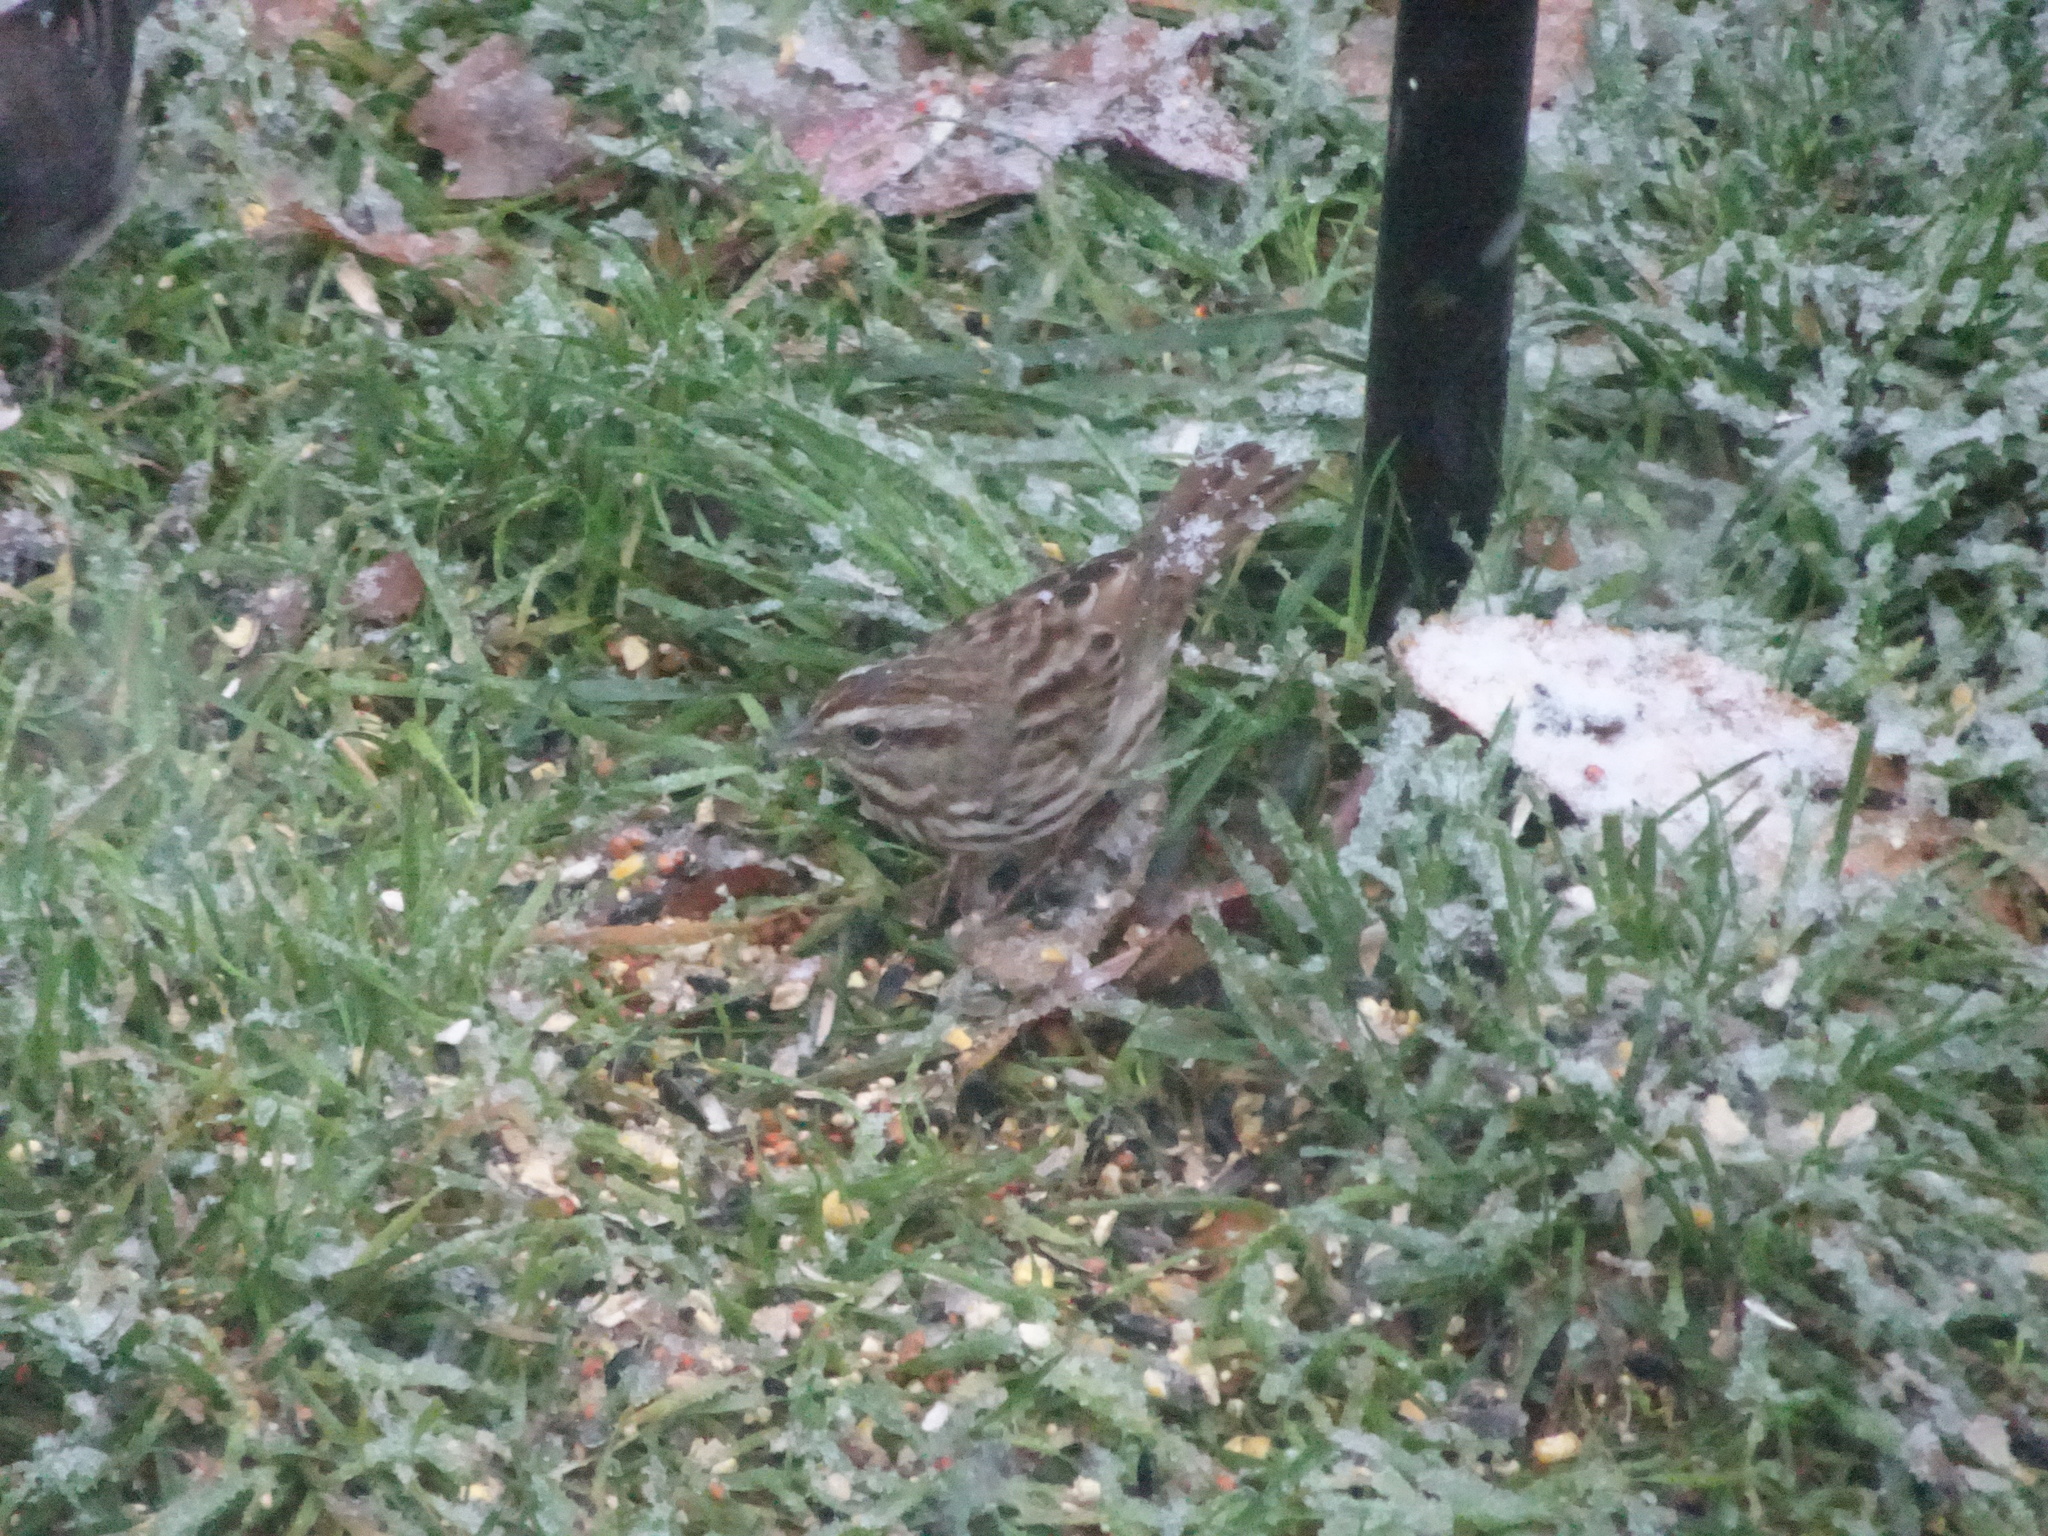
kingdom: Animalia
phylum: Chordata
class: Aves
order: Passeriformes
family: Passerellidae
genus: Melospiza
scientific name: Melospiza melodia
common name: Song sparrow
